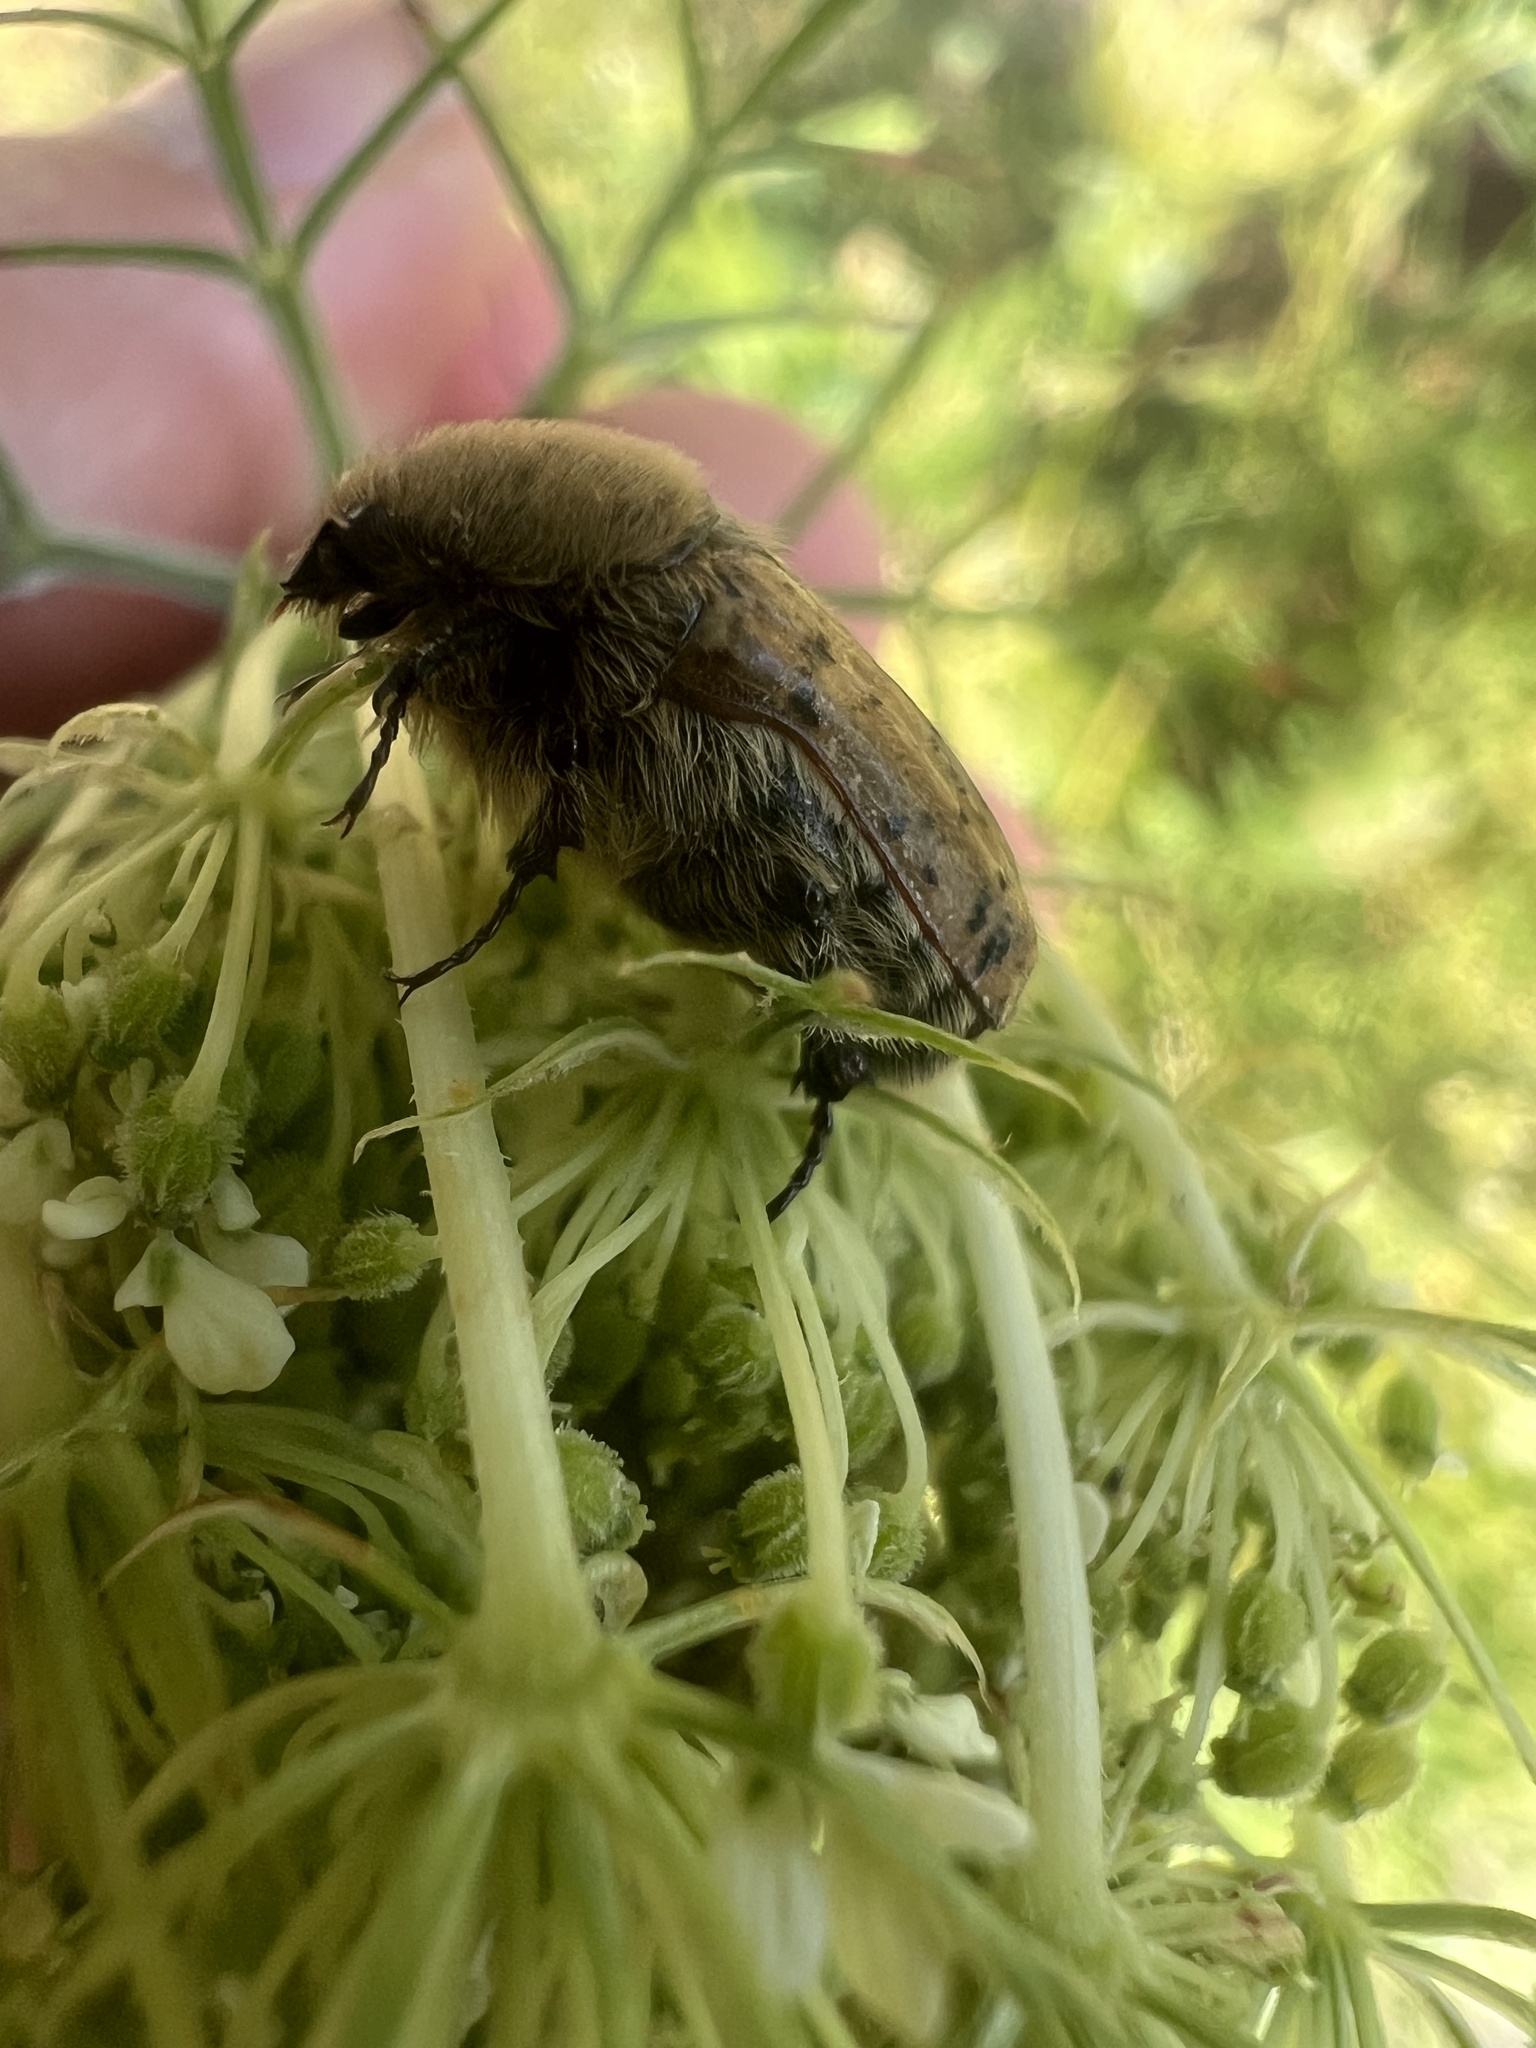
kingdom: Animalia
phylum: Arthropoda
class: Insecta
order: Coleoptera
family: Scarabaeidae
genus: Euphoria
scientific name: Euphoria inda
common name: Bumble flower beetle
